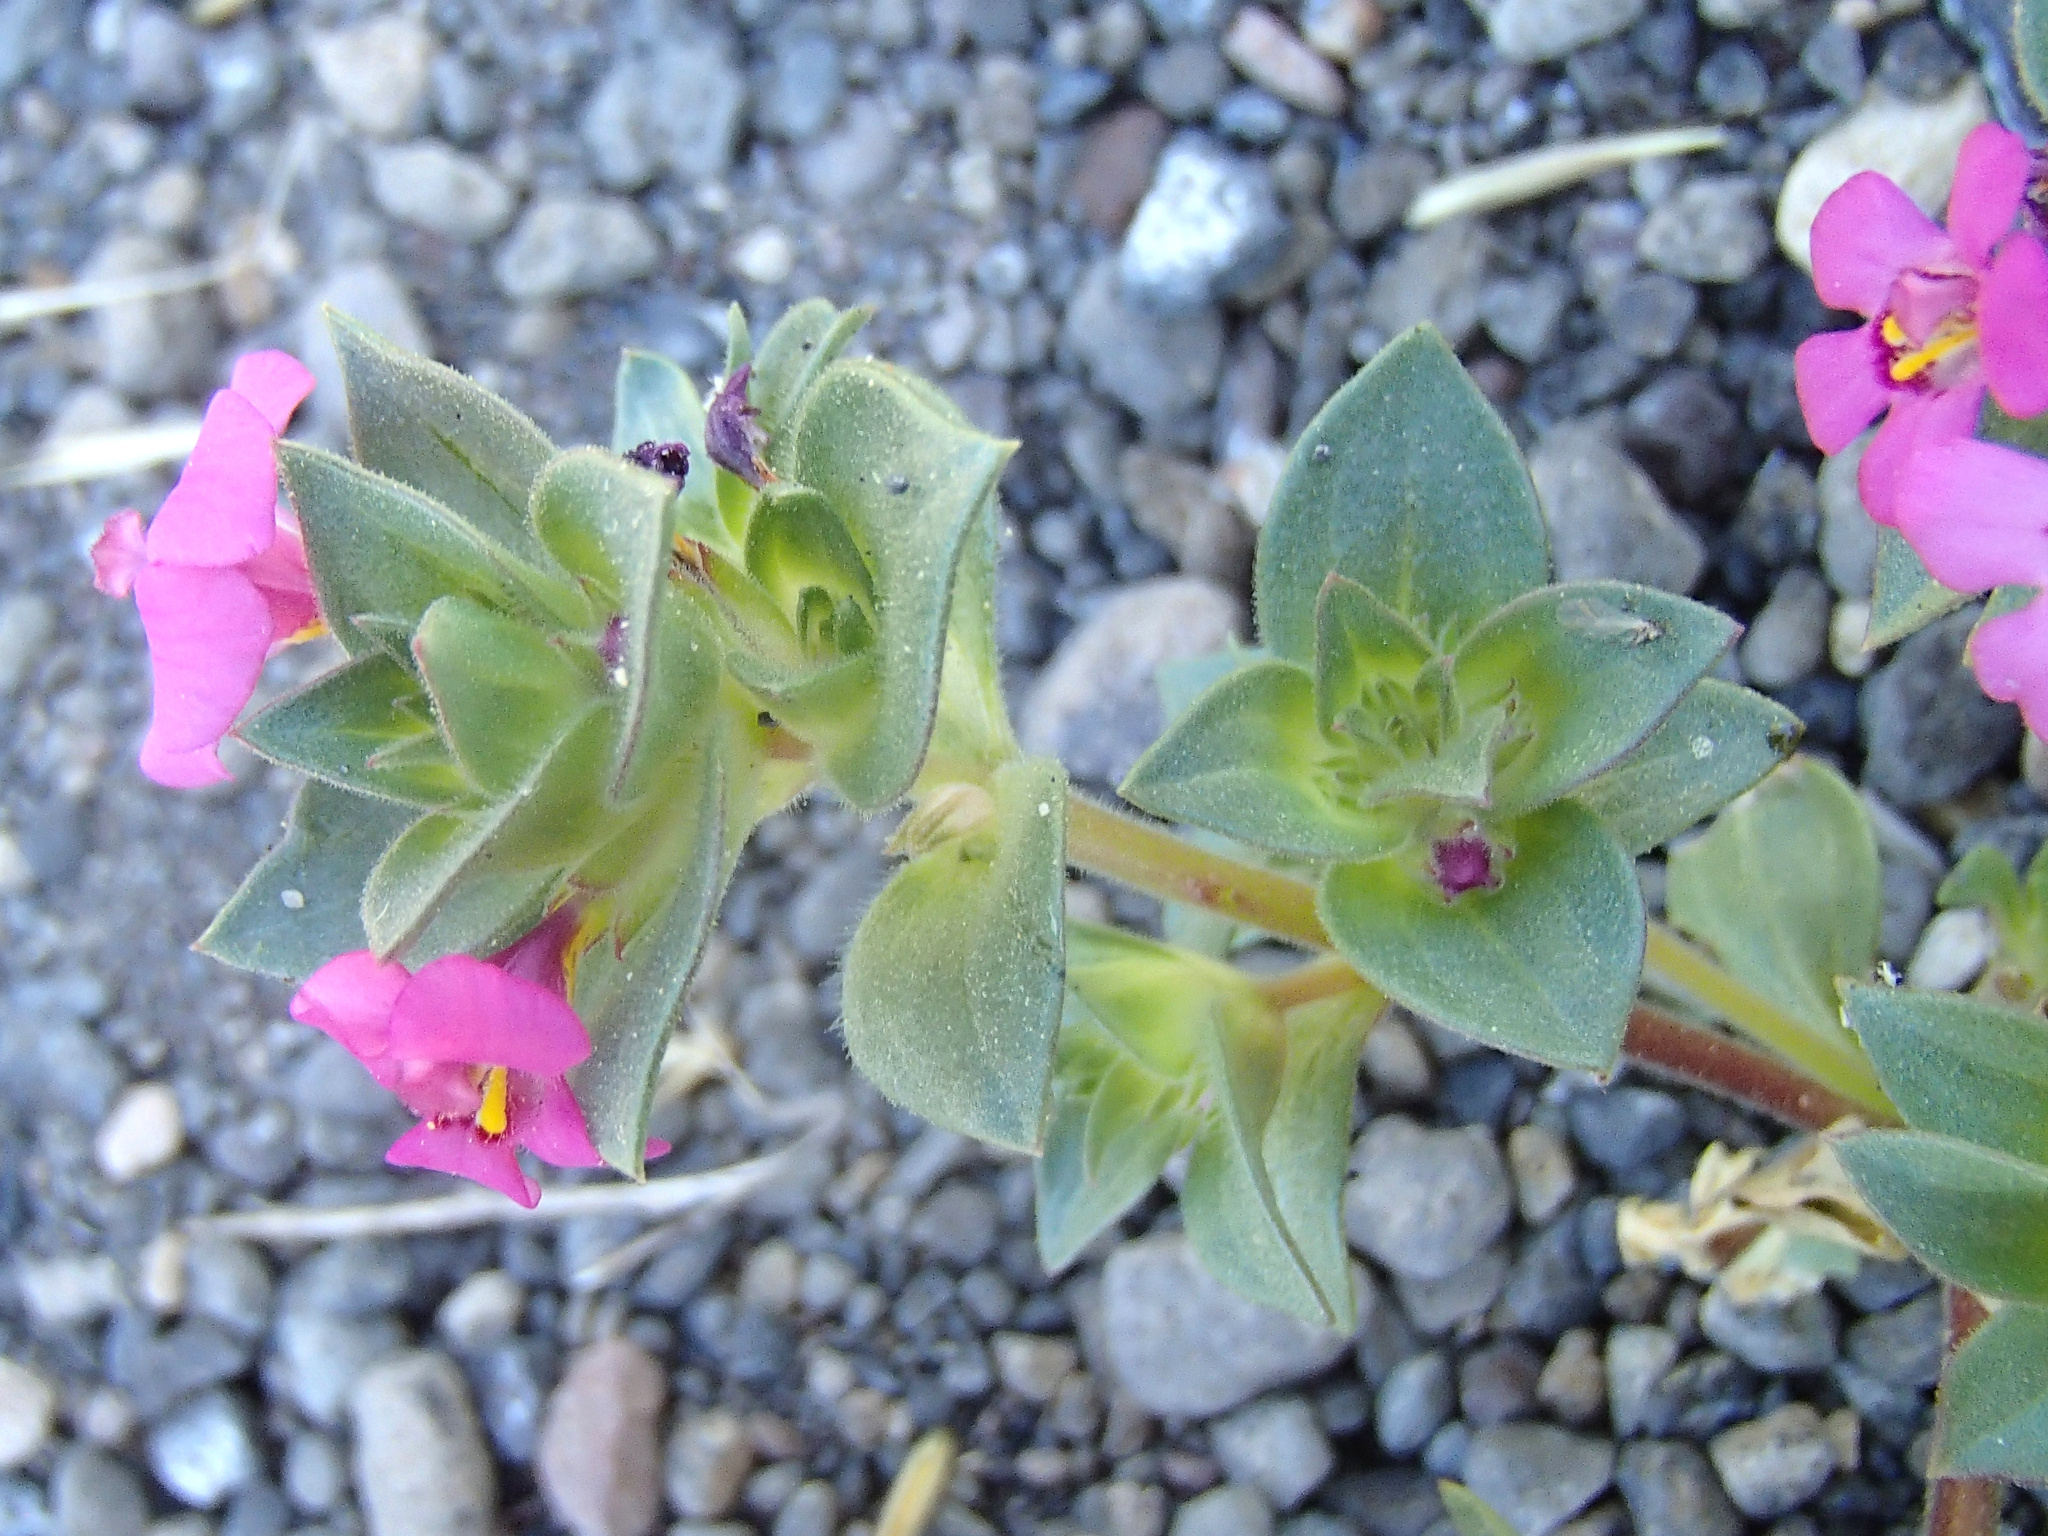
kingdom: Plantae
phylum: Tracheophyta
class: Magnoliopsida
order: Lamiales
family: Phrymaceae
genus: Diplacus
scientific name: Diplacus deschutesensis
